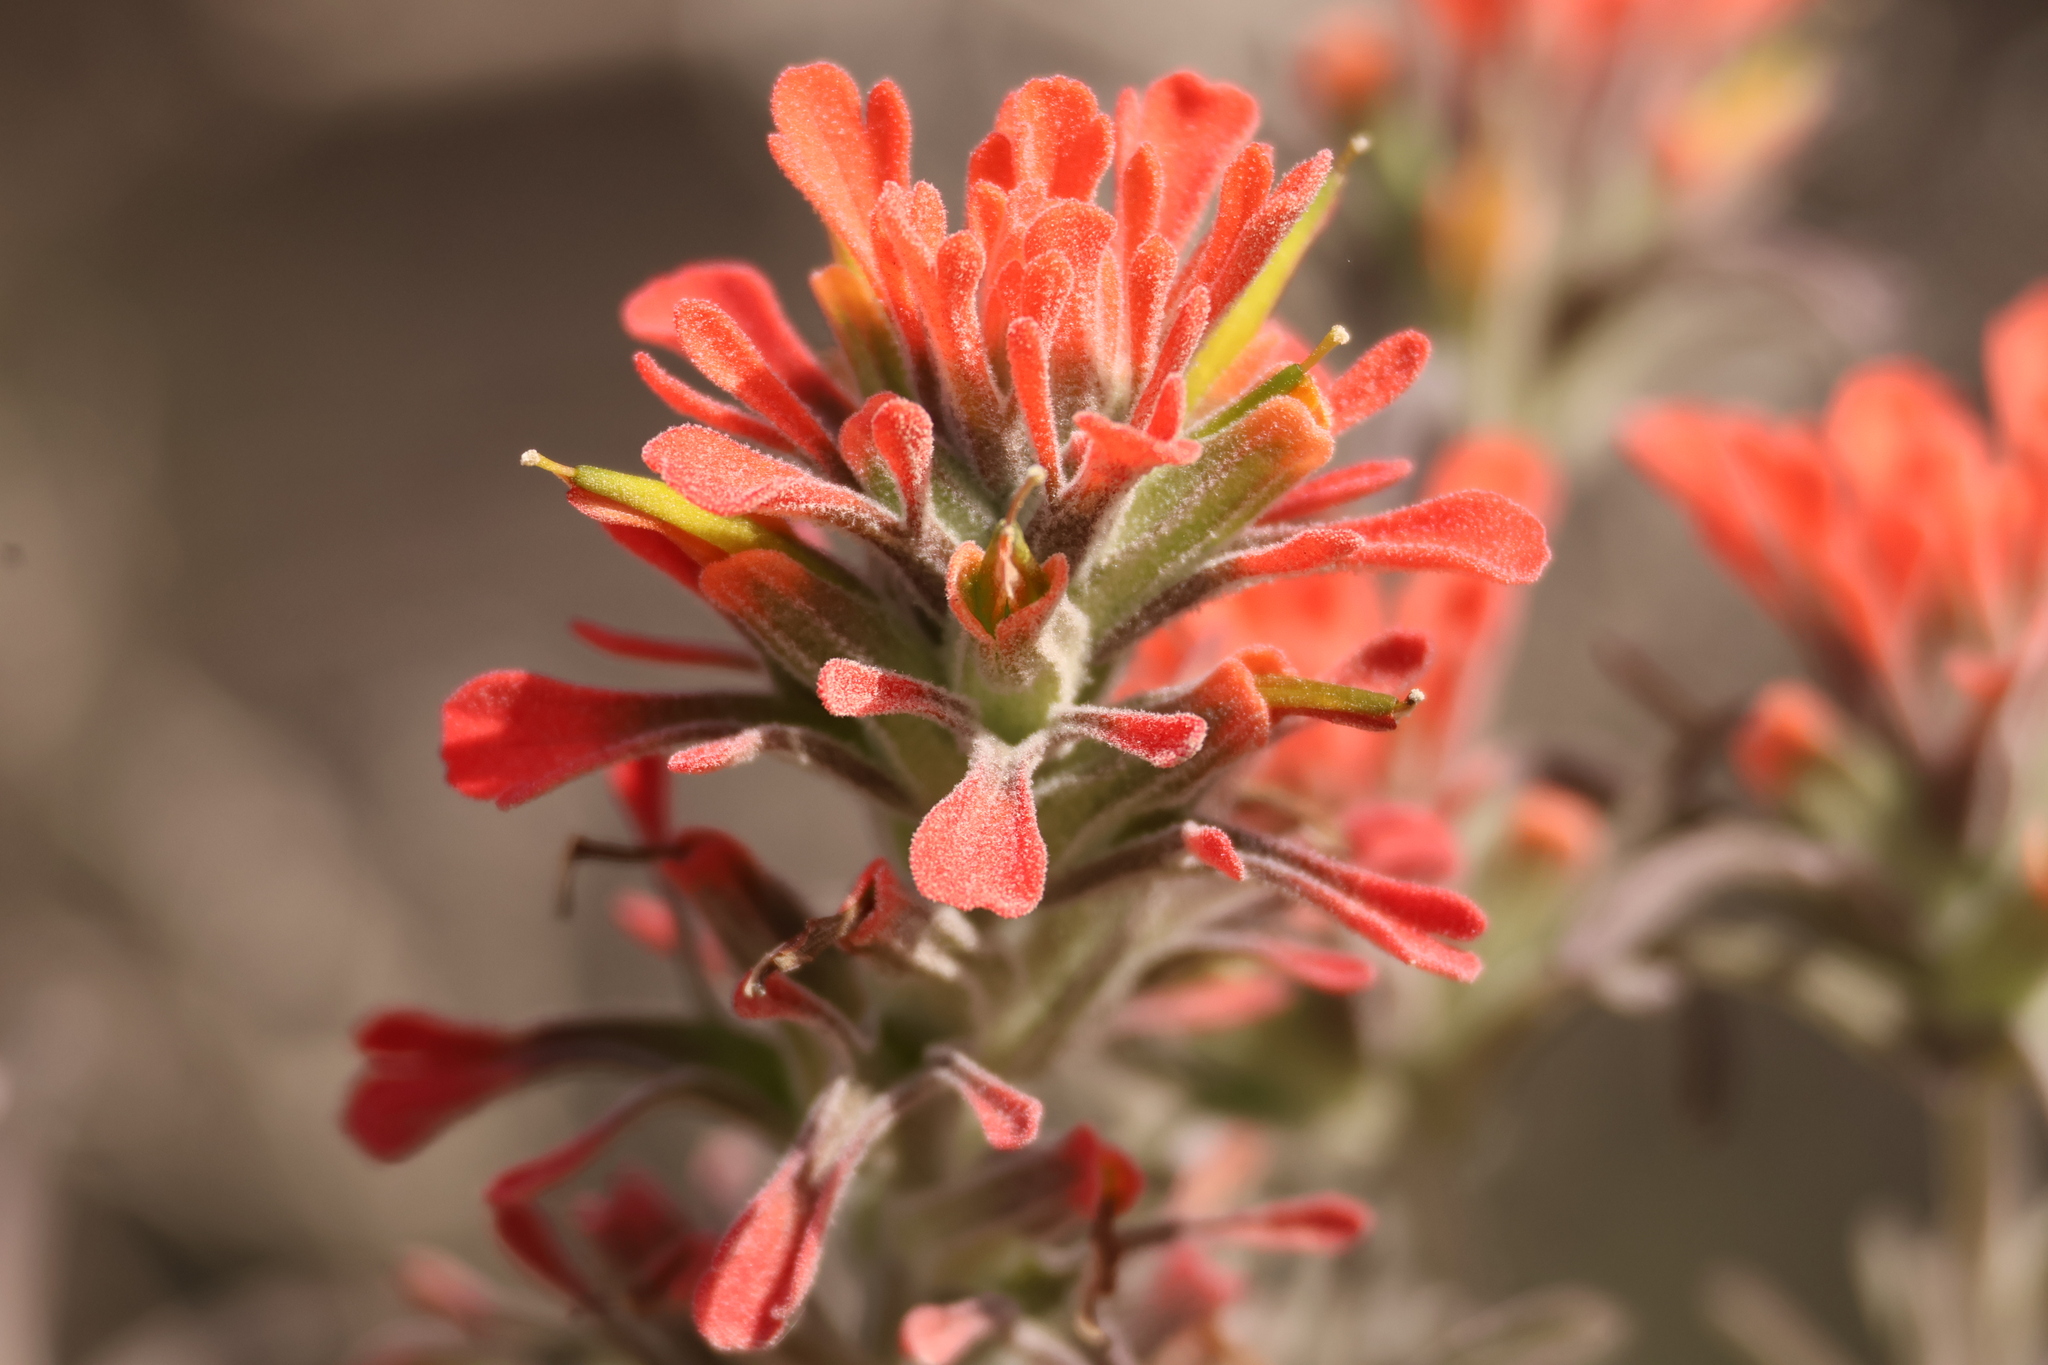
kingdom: Plantae
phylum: Tracheophyta
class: Magnoliopsida
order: Lamiales
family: Orobanchaceae
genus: Castilleja
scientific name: Castilleja foliolosa
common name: Woolly indian paintbrush
